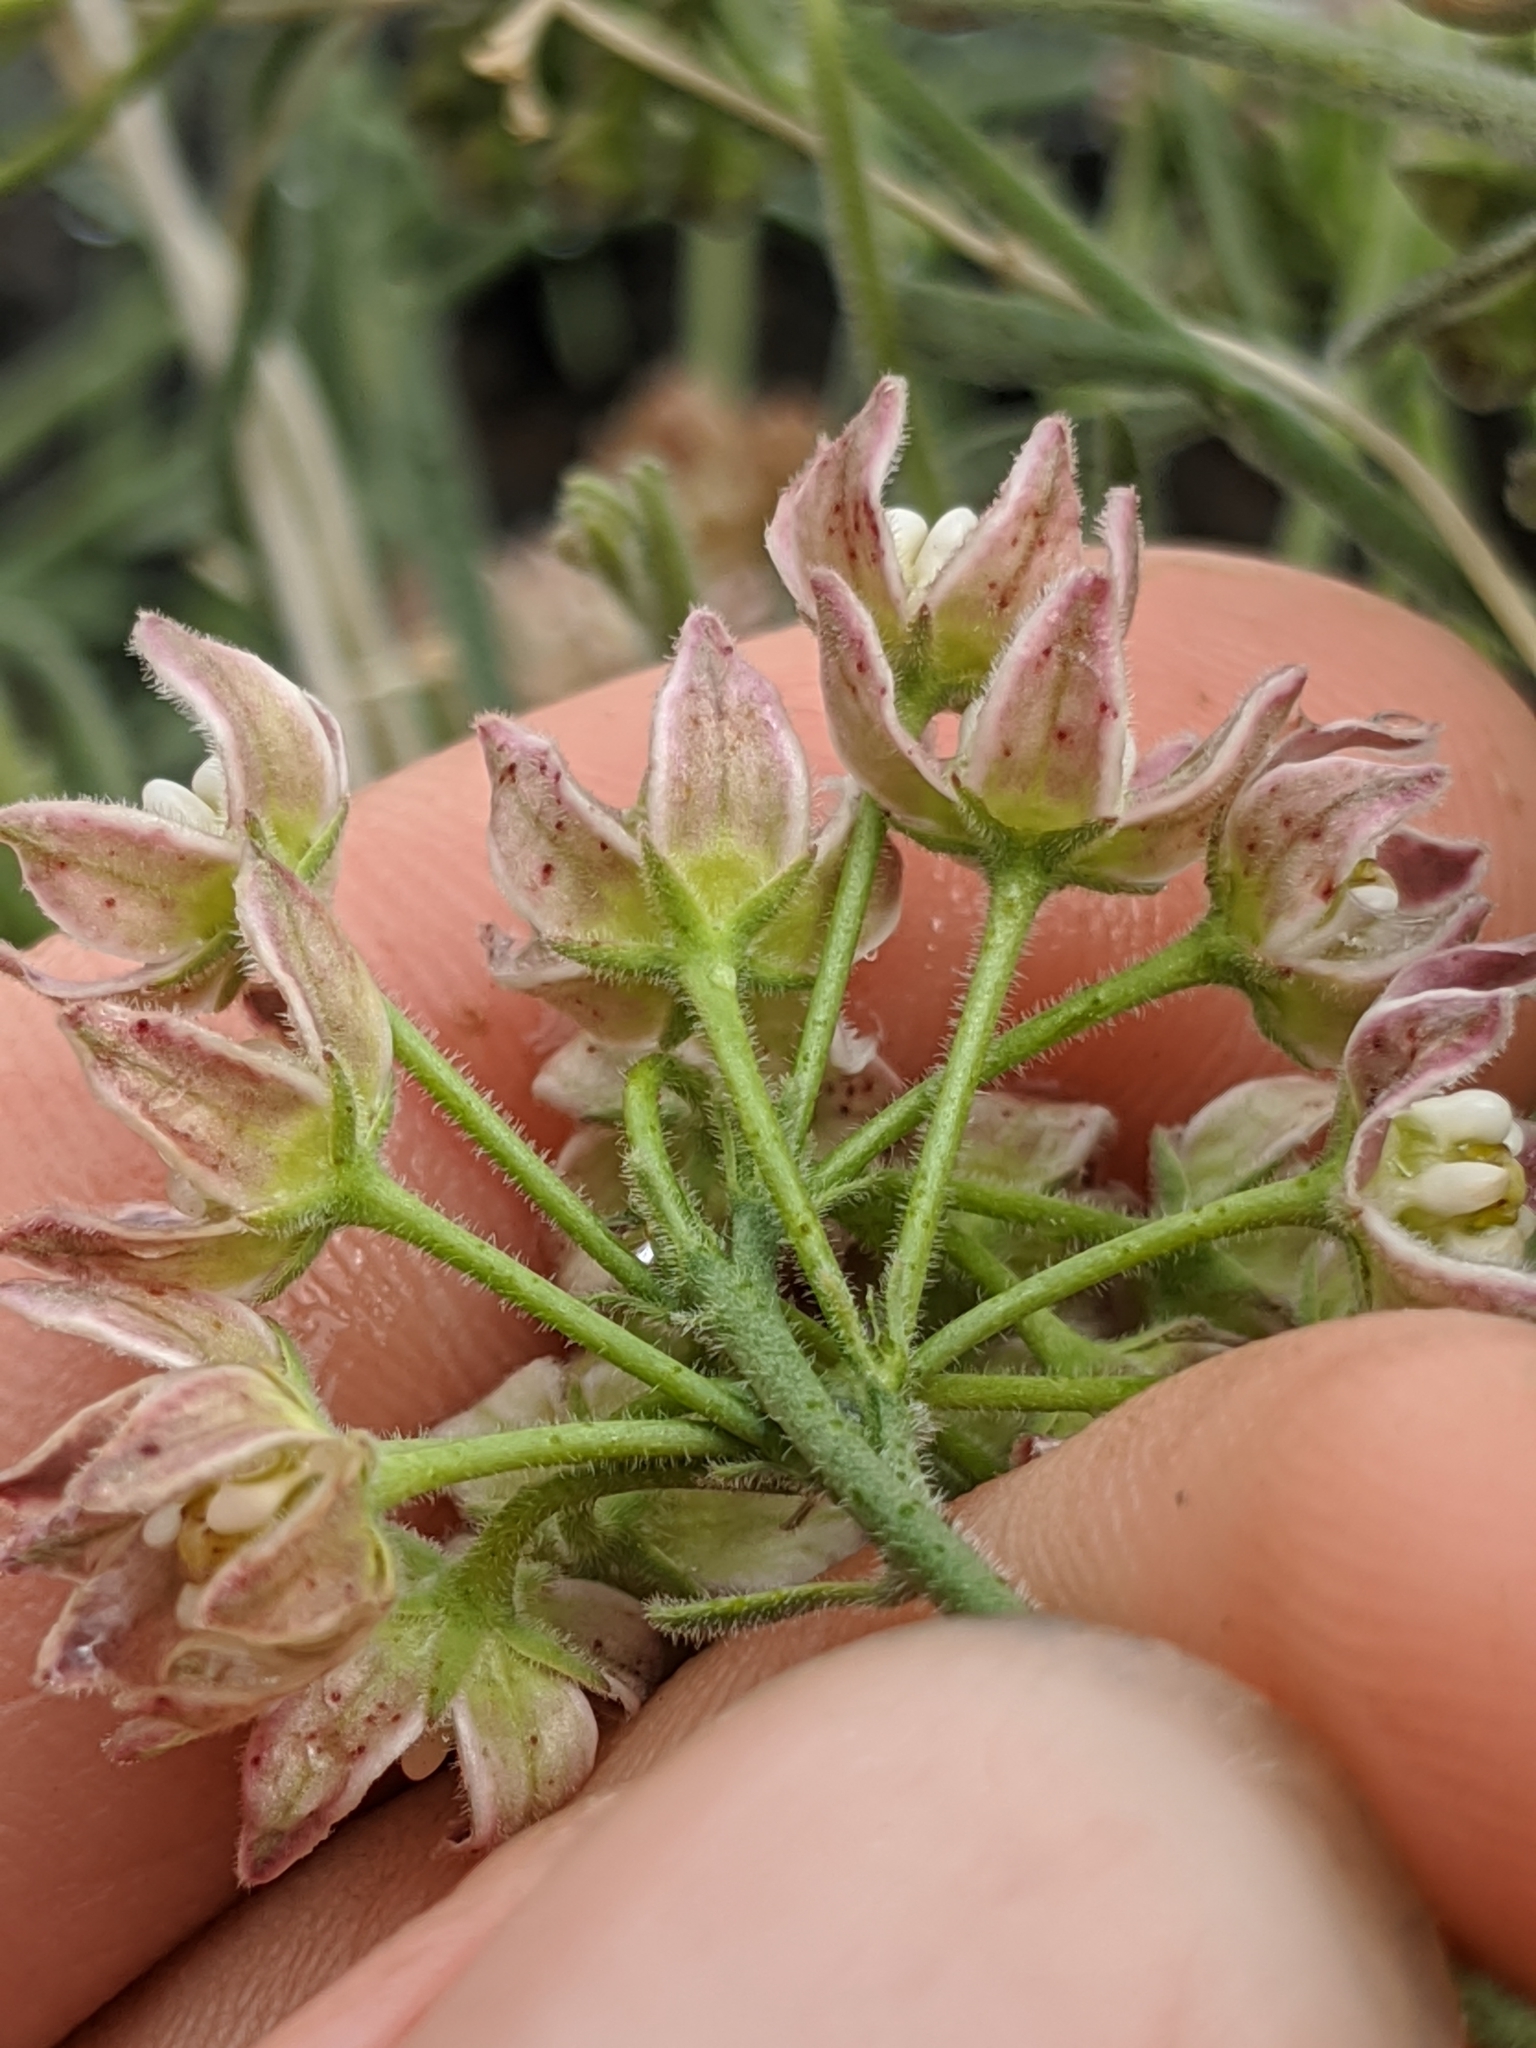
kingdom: Plantae
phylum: Tracheophyta
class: Magnoliopsida
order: Gentianales
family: Apocynaceae
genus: Funastrum
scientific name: Funastrum hirtellum
